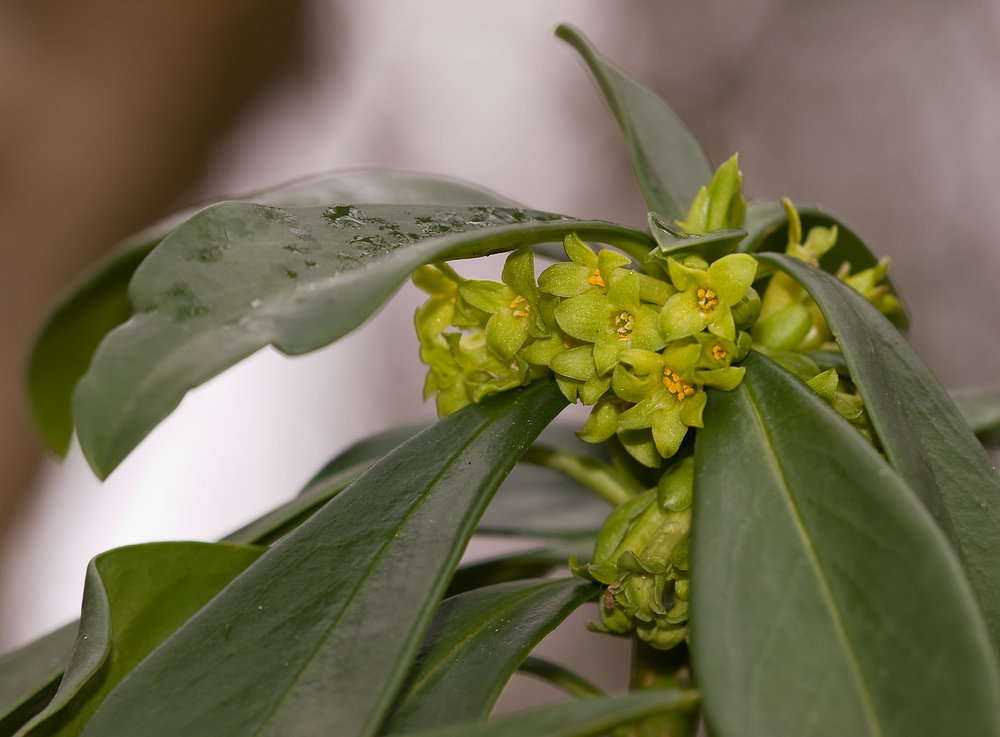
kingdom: Plantae
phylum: Tracheophyta
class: Magnoliopsida
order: Malvales
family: Thymelaeaceae
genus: Daphne
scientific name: Daphne laureola
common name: Spurge-laurel
